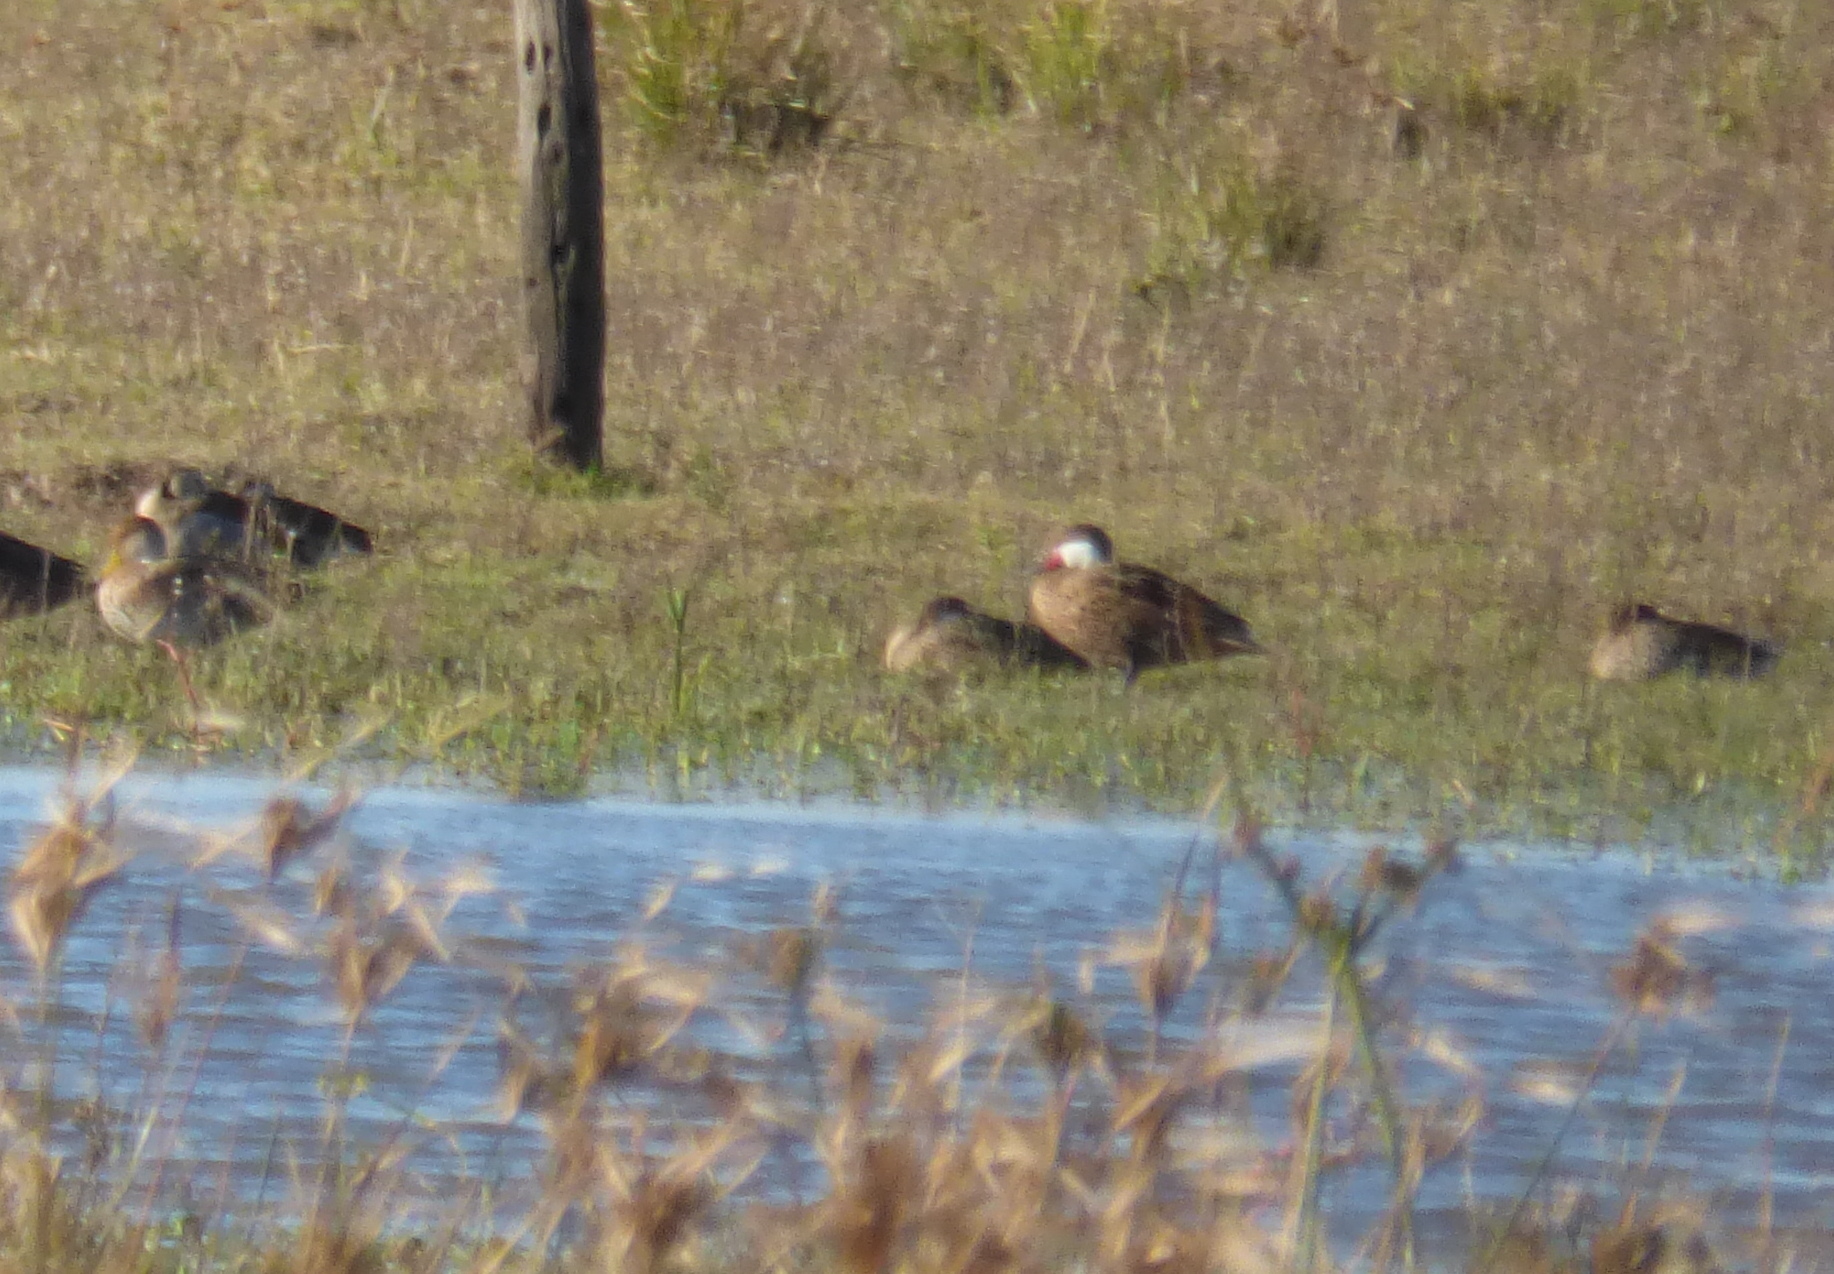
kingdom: Animalia
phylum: Chordata
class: Aves
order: Anseriformes
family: Anatidae
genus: Anas
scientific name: Anas bahamensis
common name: White-cheeked pintail
